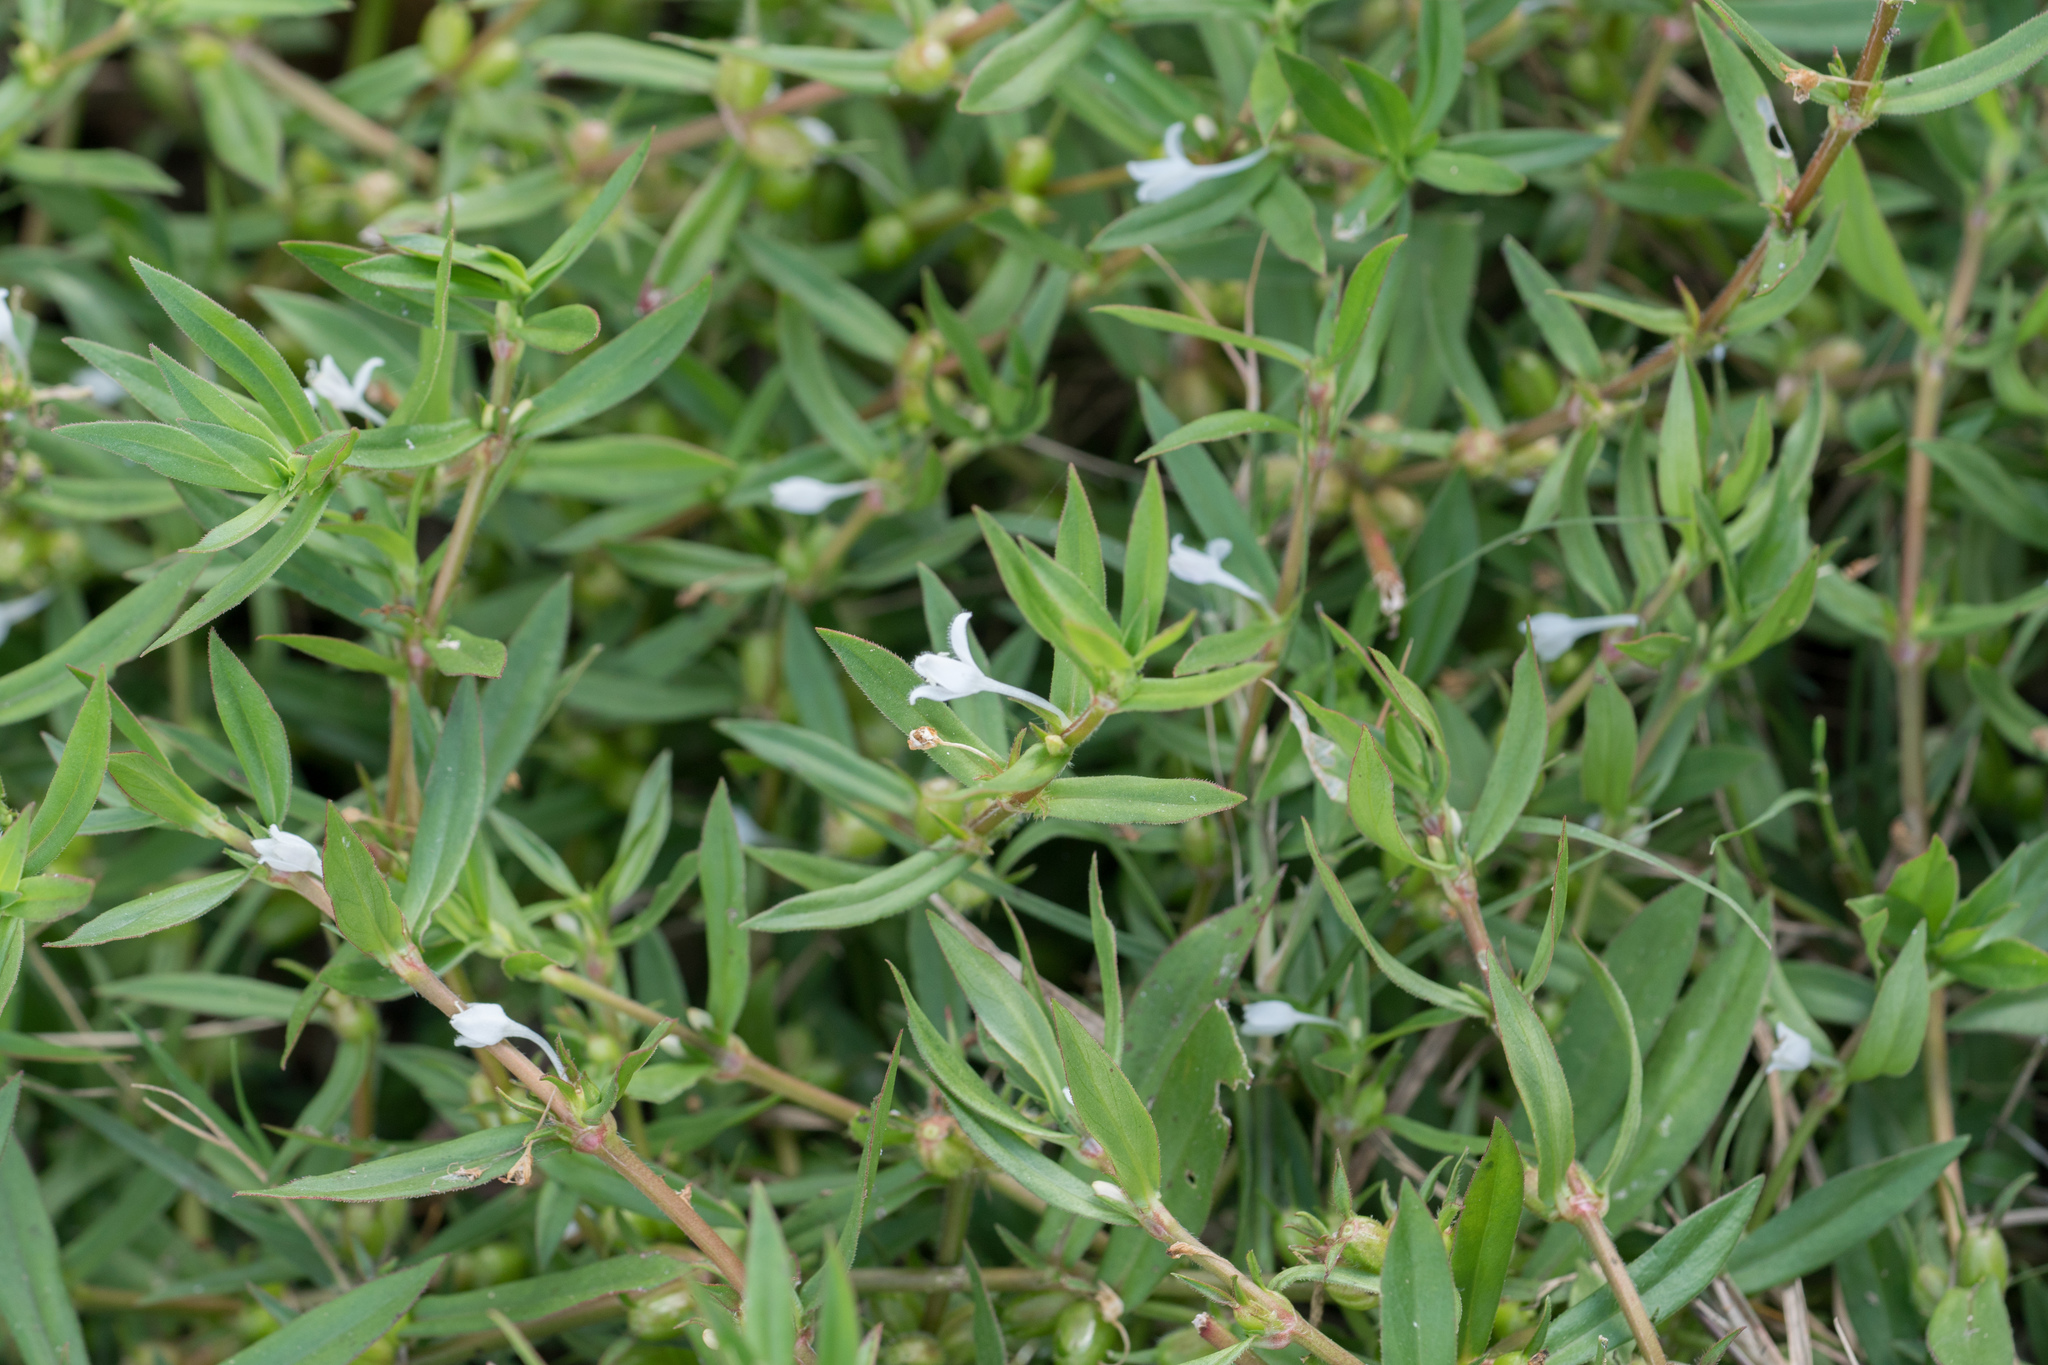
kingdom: Plantae
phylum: Tracheophyta
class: Magnoliopsida
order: Gentianales
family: Rubiaceae
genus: Diodia
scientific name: Diodia virginiana
